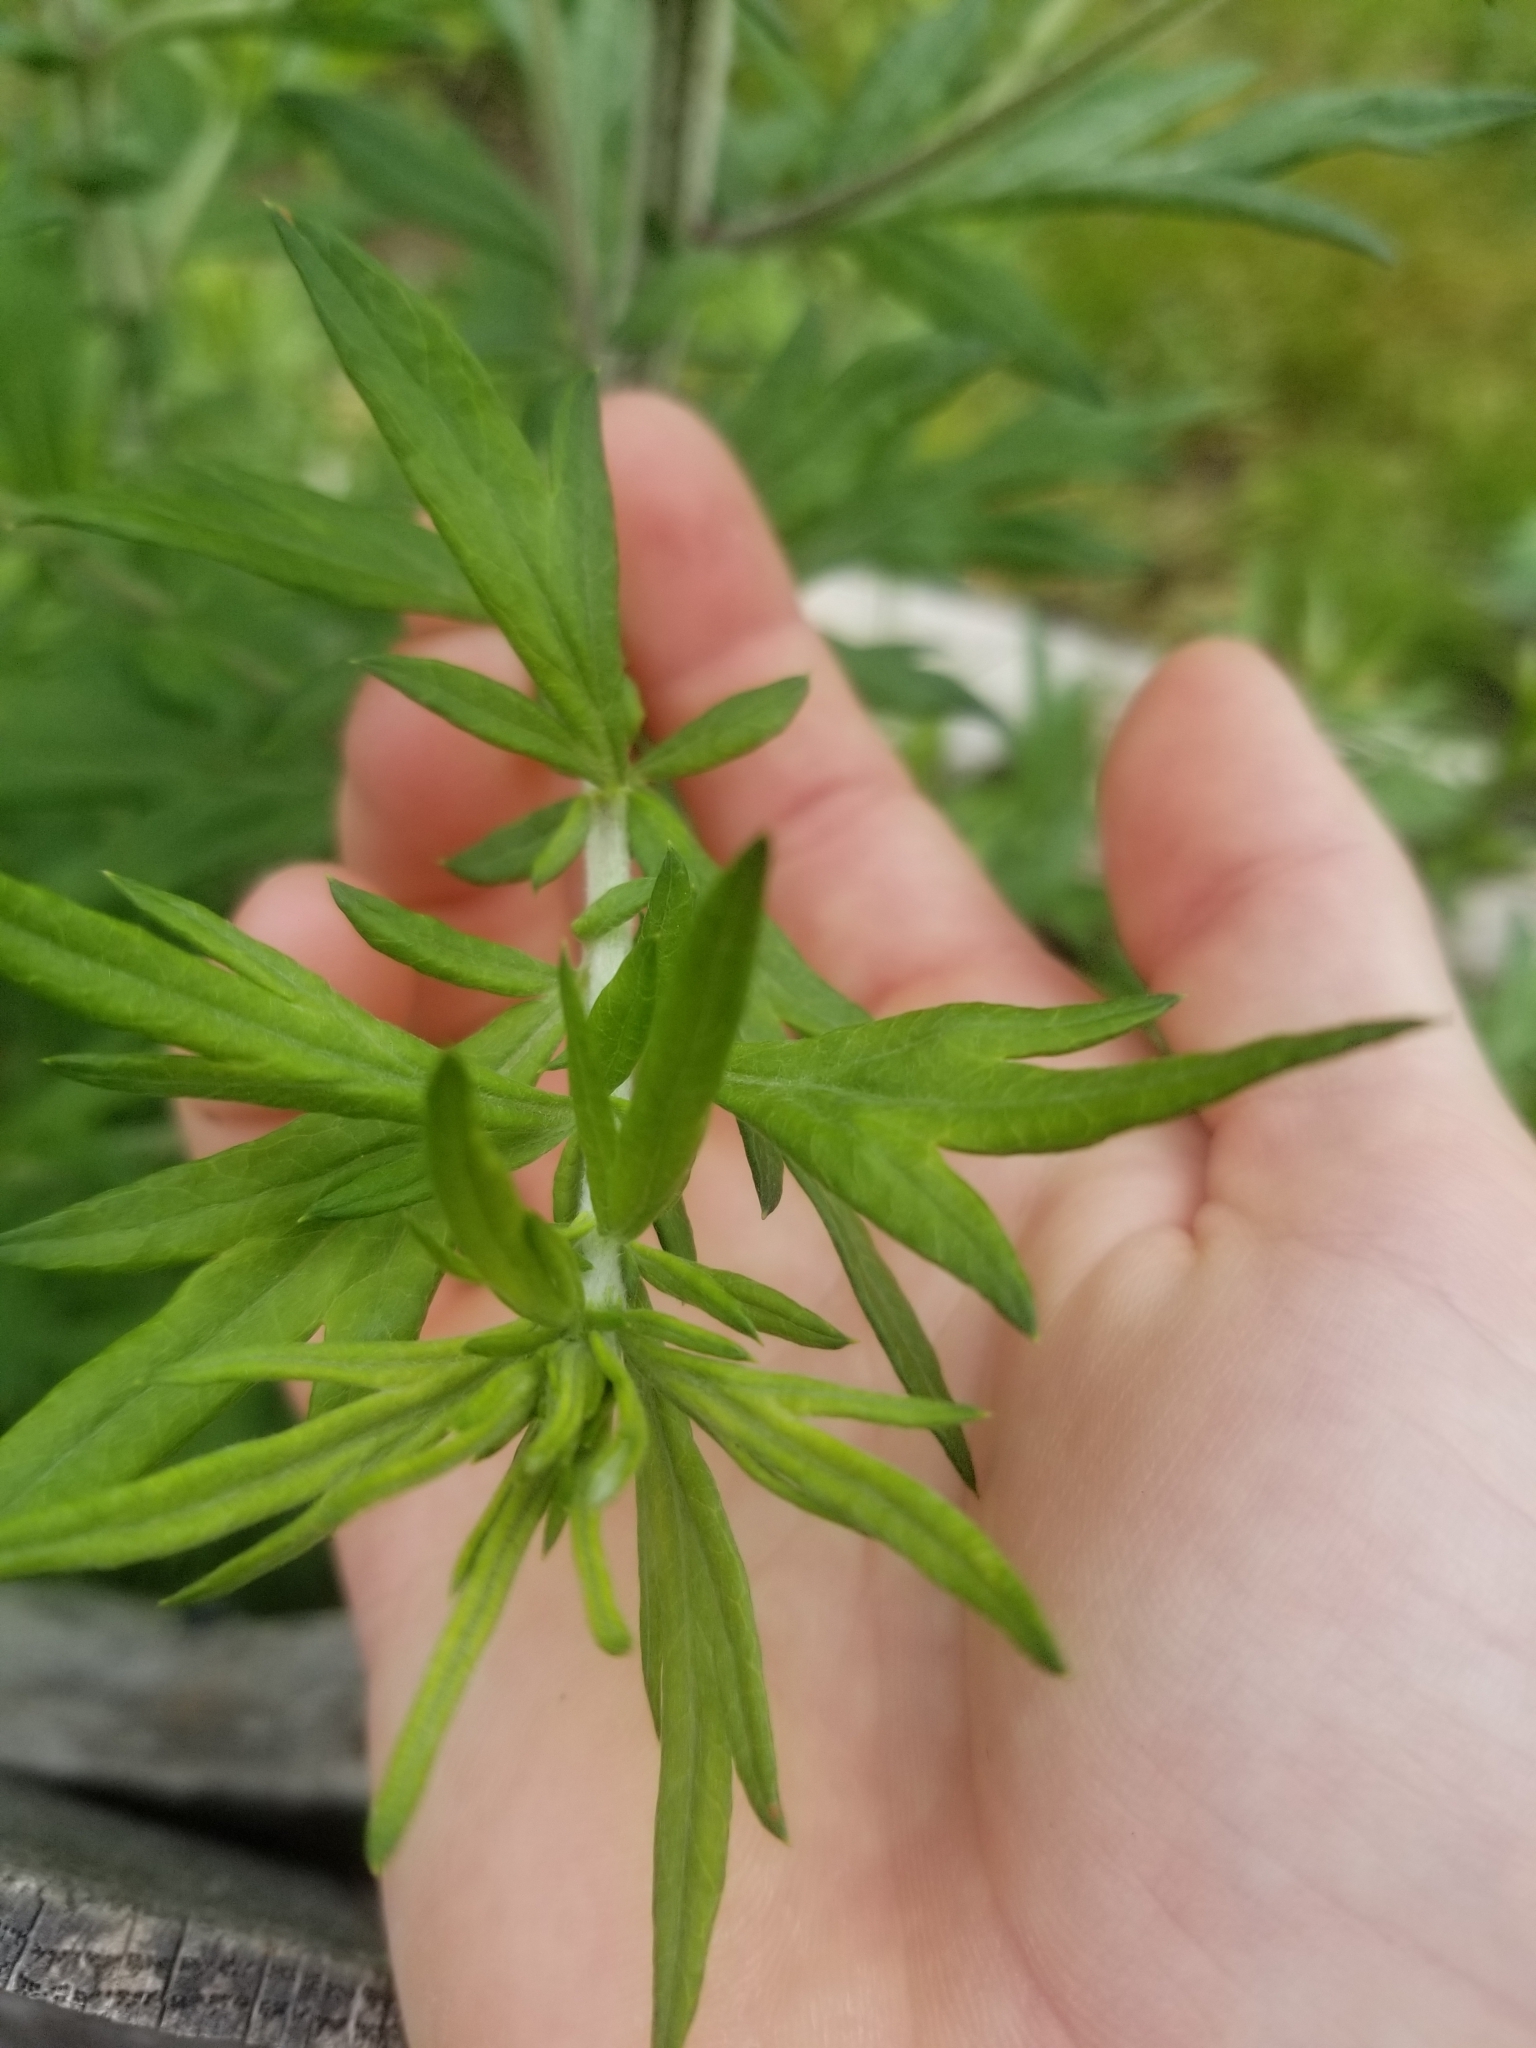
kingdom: Plantae
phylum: Tracheophyta
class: Magnoliopsida
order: Asterales
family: Asteraceae
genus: Artemisia
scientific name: Artemisia vulgaris
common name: Mugwort
